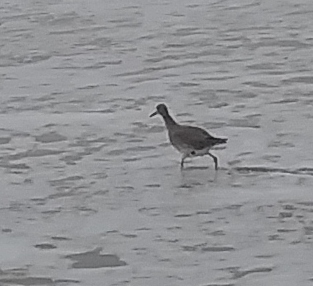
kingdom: Animalia
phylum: Chordata
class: Aves
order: Charadriiformes
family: Scolopacidae
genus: Tringa
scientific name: Tringa semipalmata
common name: Willet
